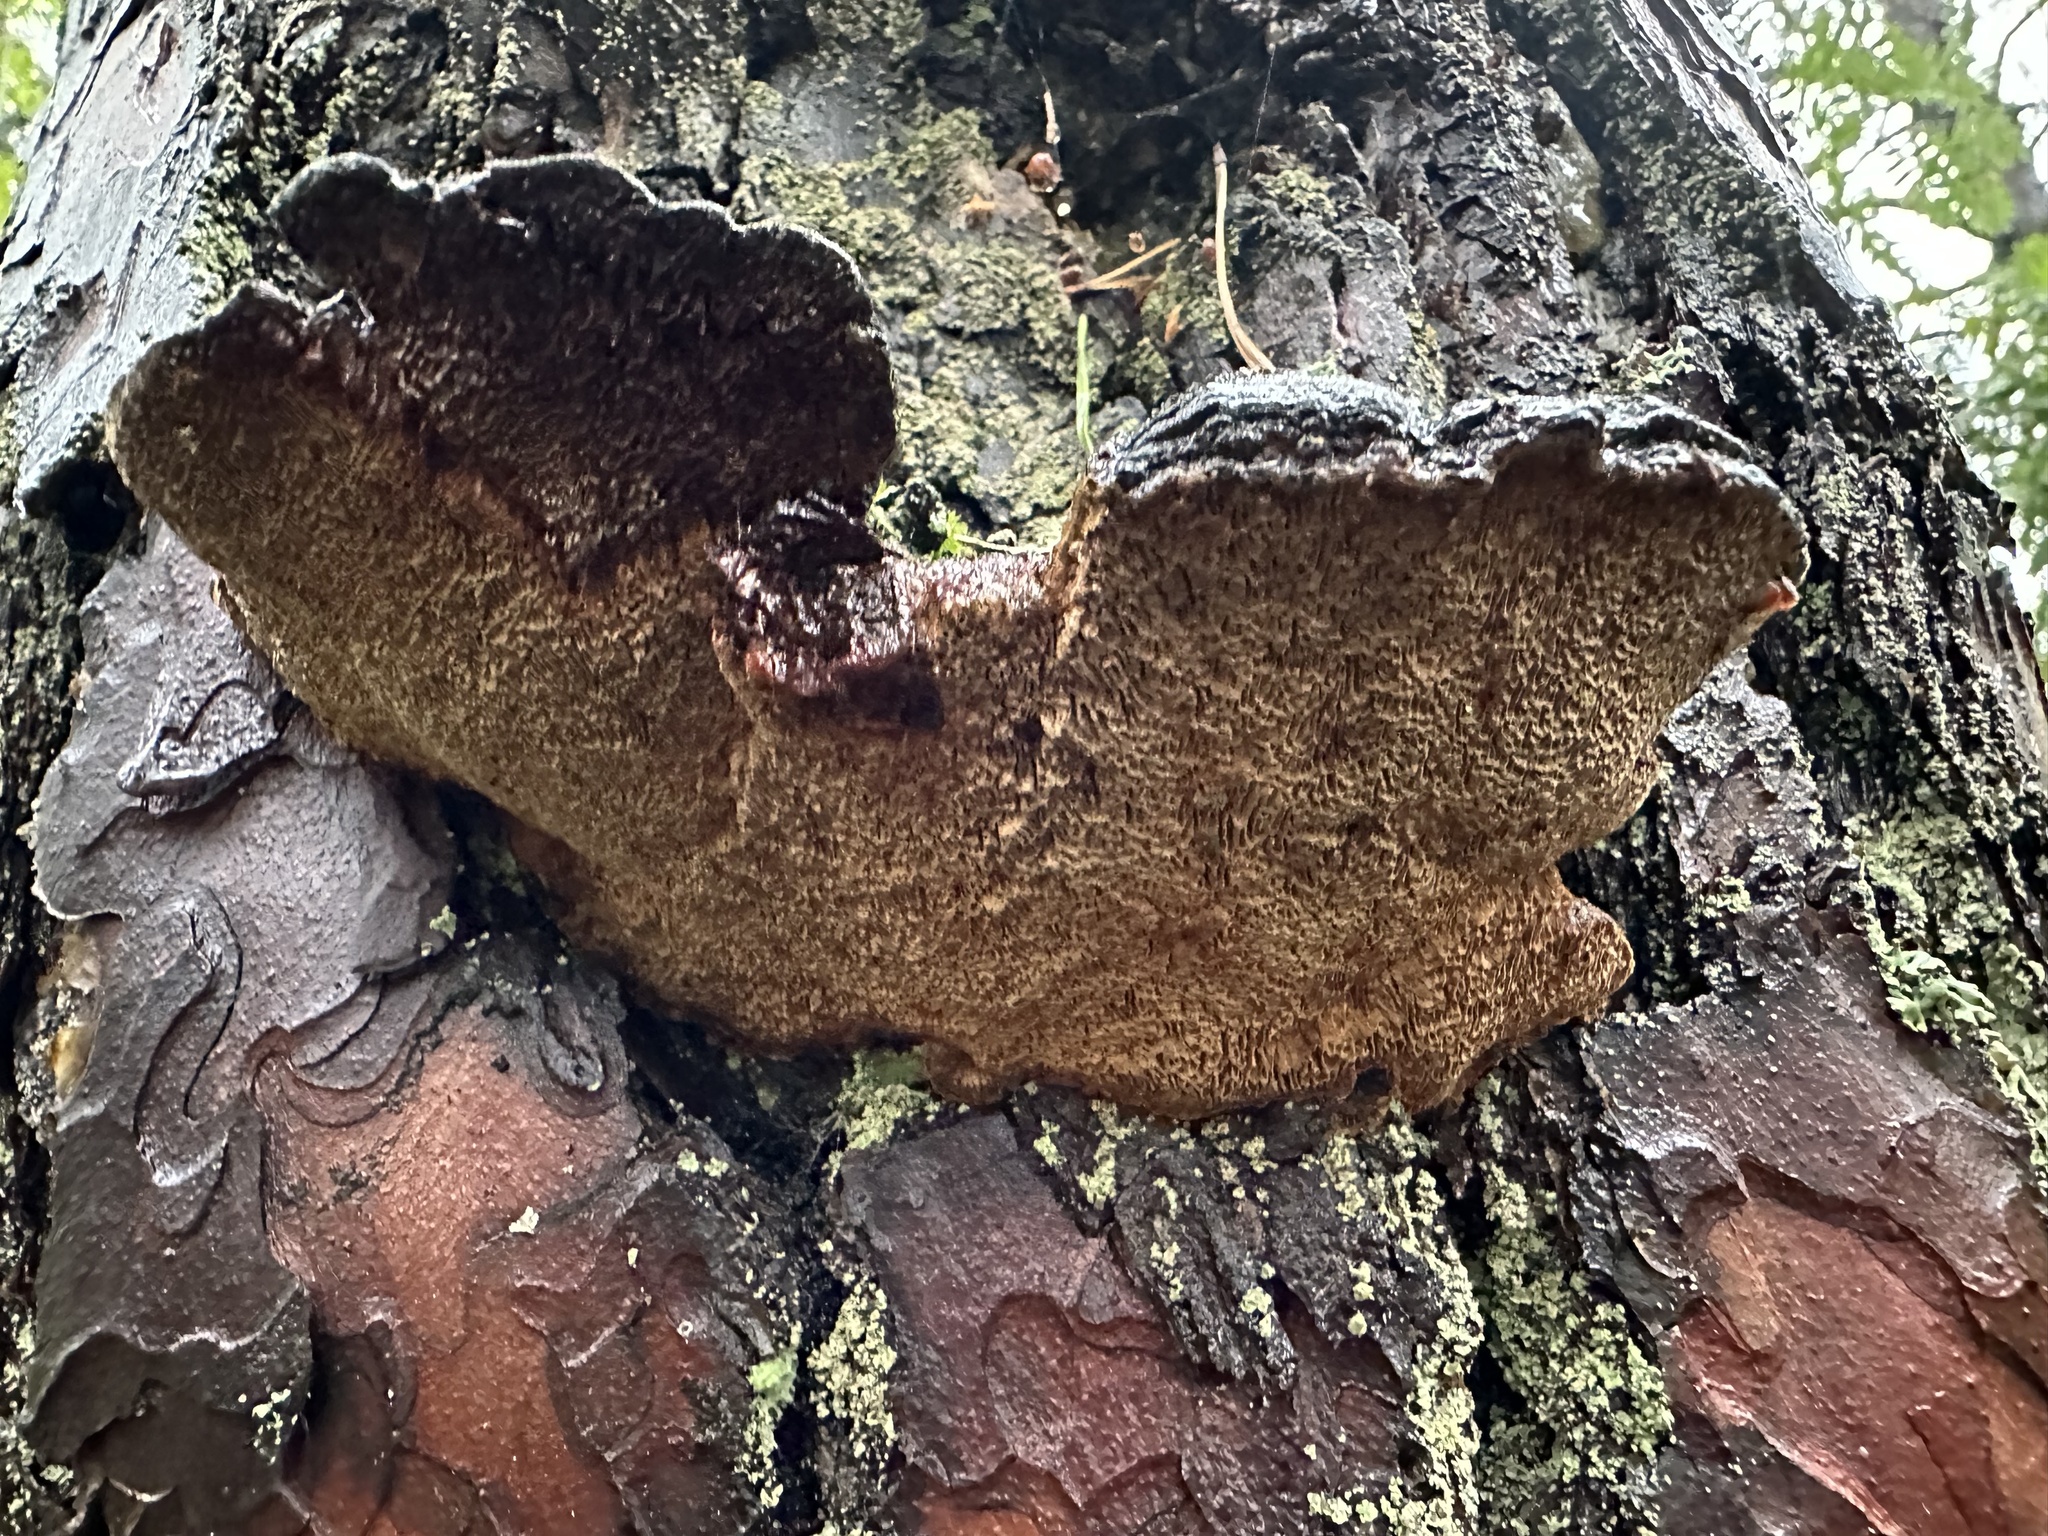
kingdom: Fungi
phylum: Basidiomycota
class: Agaricomycetes
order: Hymenochaetales
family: Hymenochaetaceae
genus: Porodaedalea
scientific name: Porodaedalea pini
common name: Pine bracket
